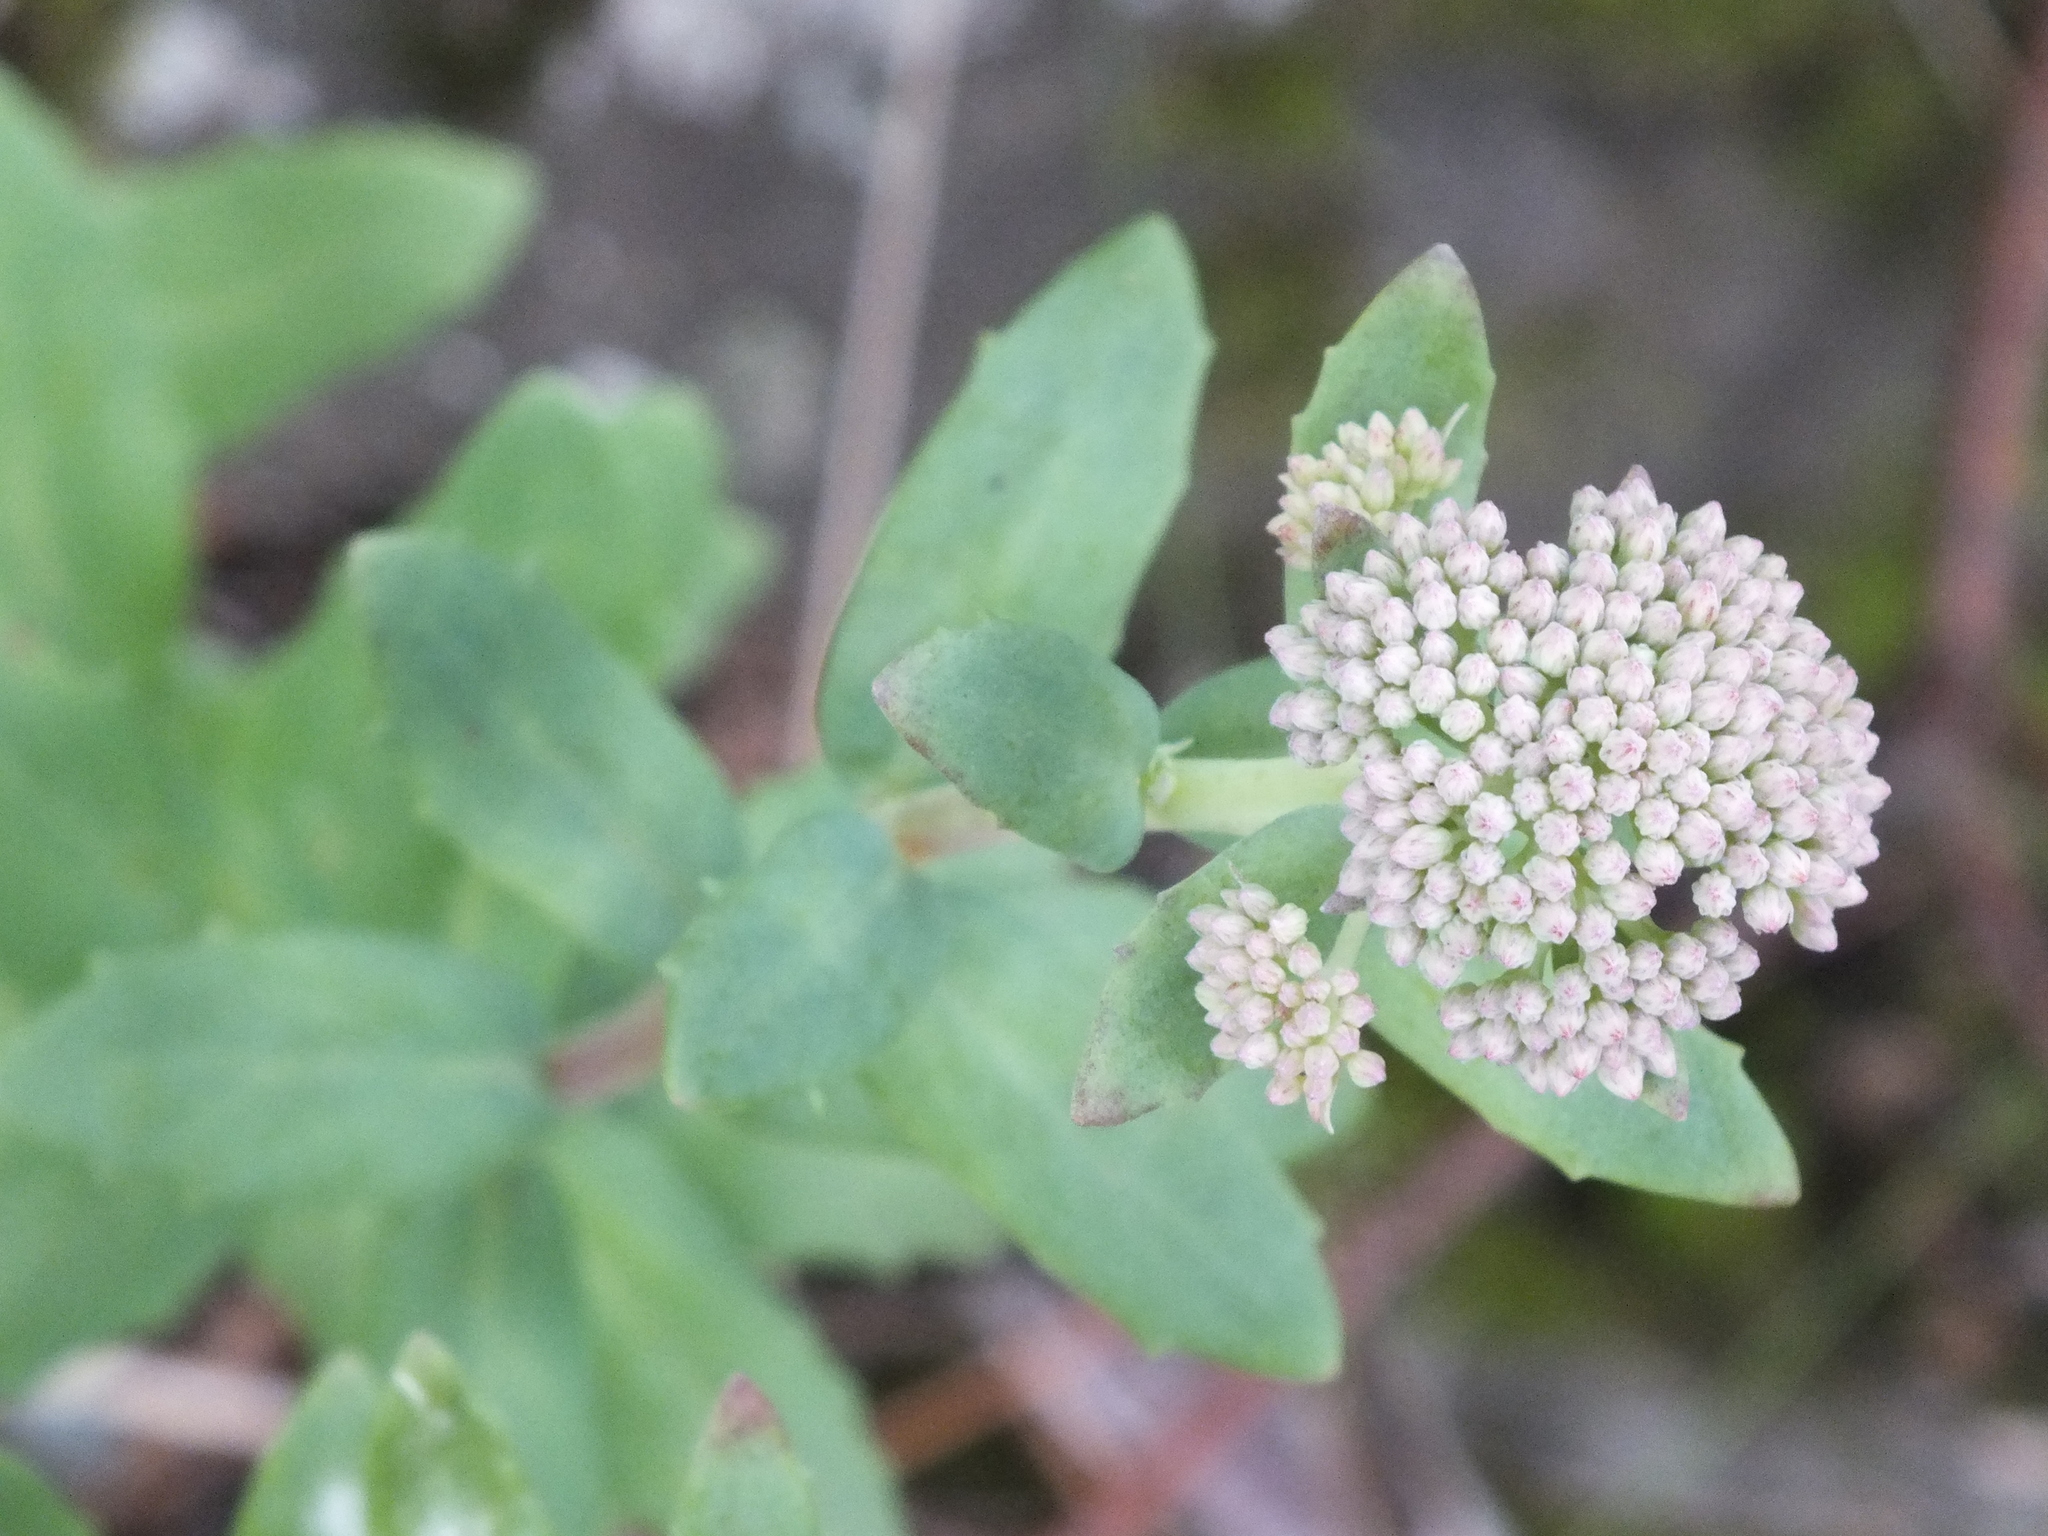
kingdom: Plantae
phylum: Tracheophyta
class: Magnoliopsida
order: Saxifragales
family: Crassulaceae
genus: Hylotelephium
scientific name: Hylotelephium telephium
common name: Live-forever
